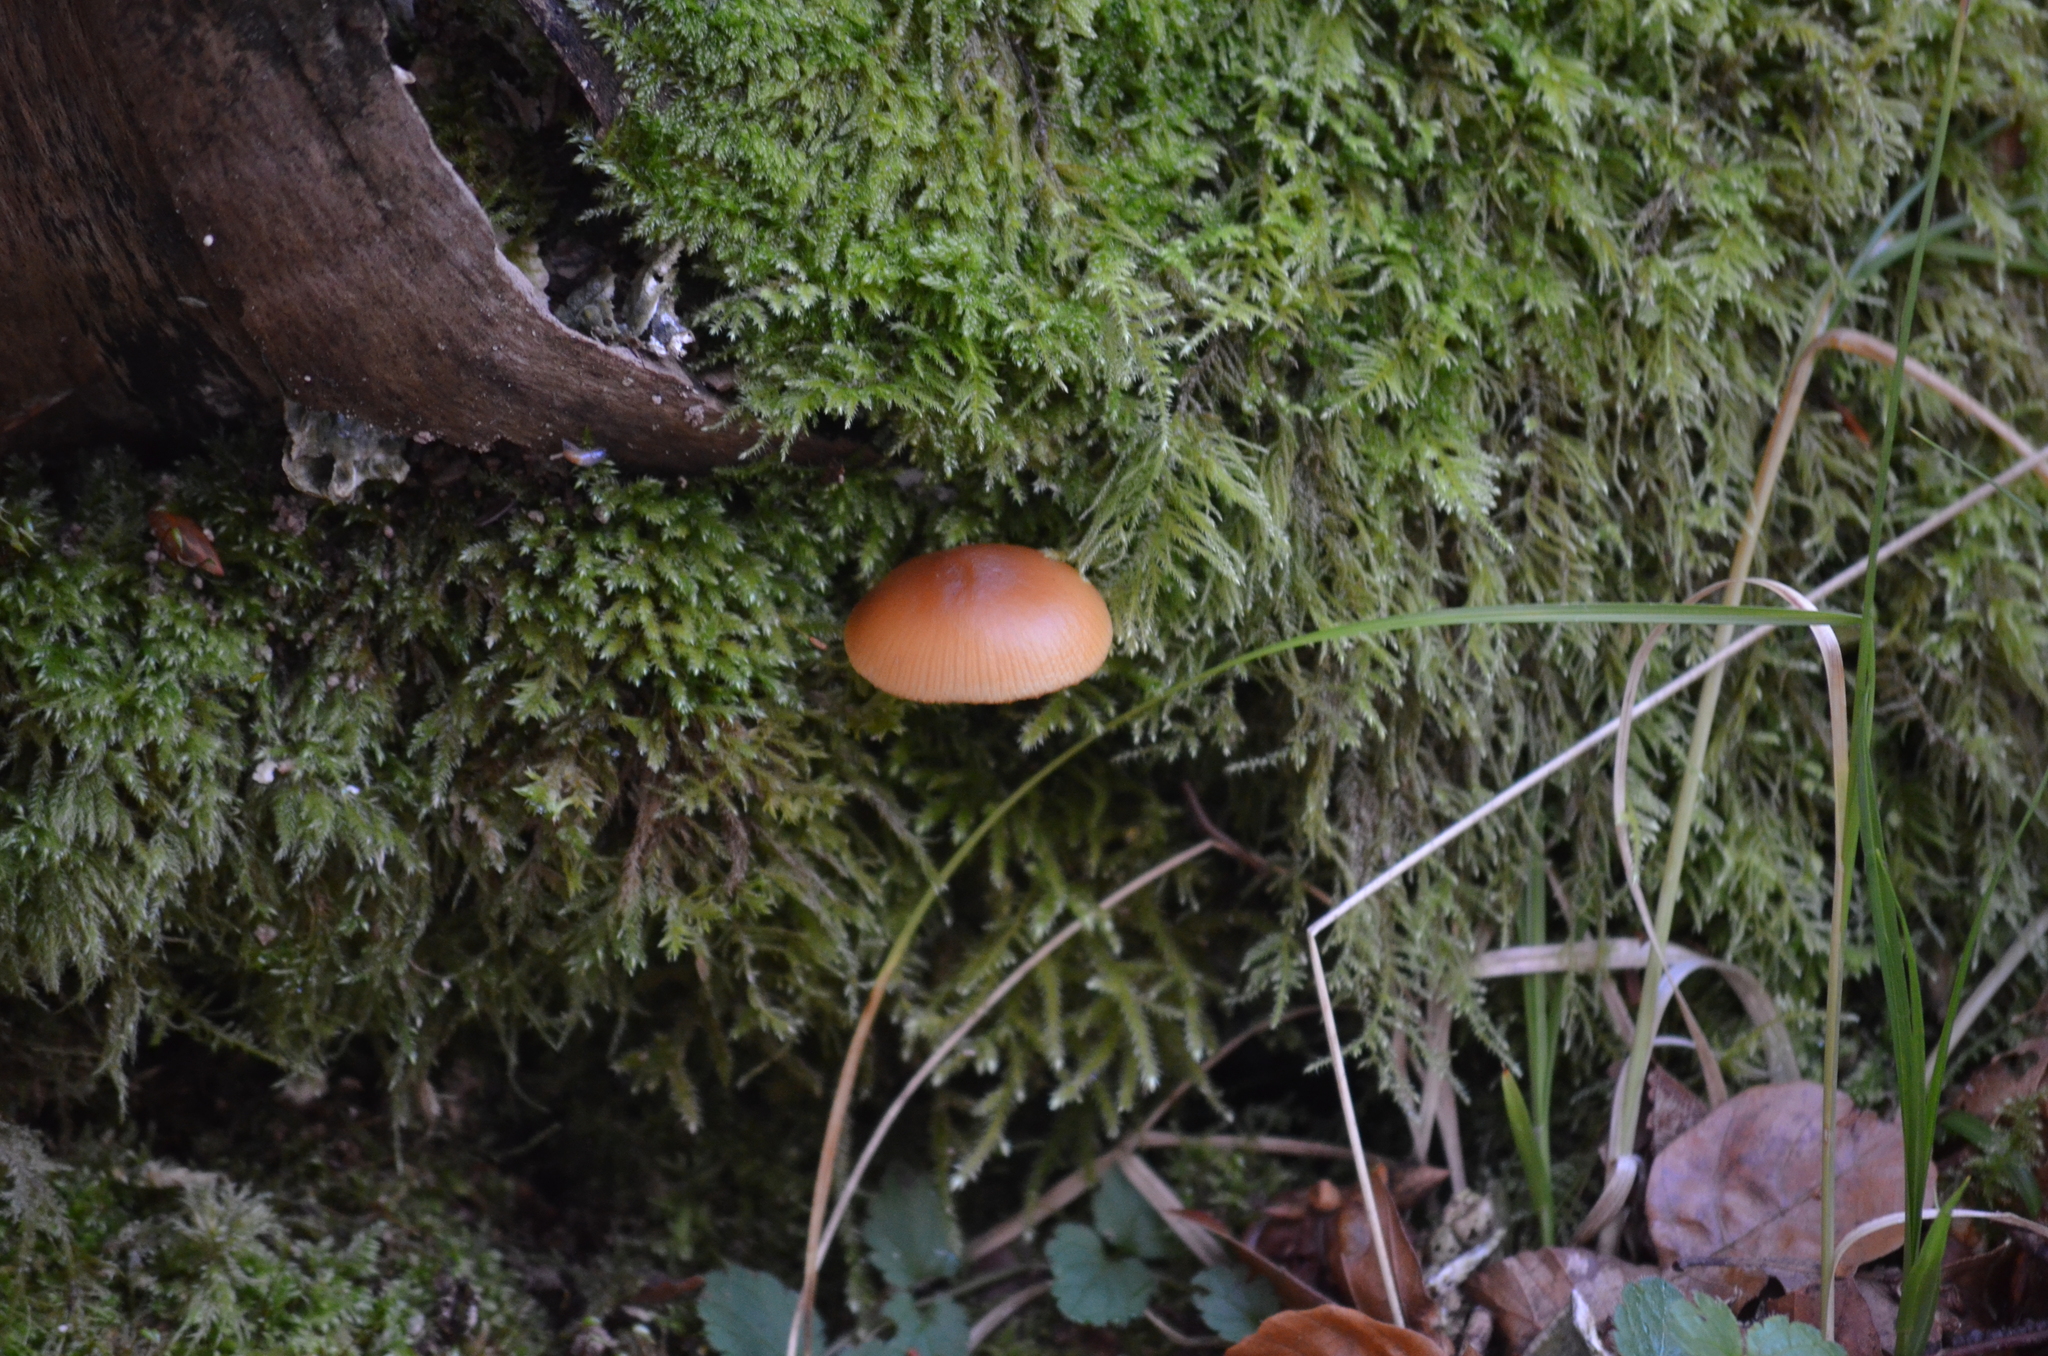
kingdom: Fungi
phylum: Basidiomycota
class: Agaricomycetes
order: Agaricales
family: Hymenogastraceae
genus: Galerina
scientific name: Galerina marginata
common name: Funeral bell
